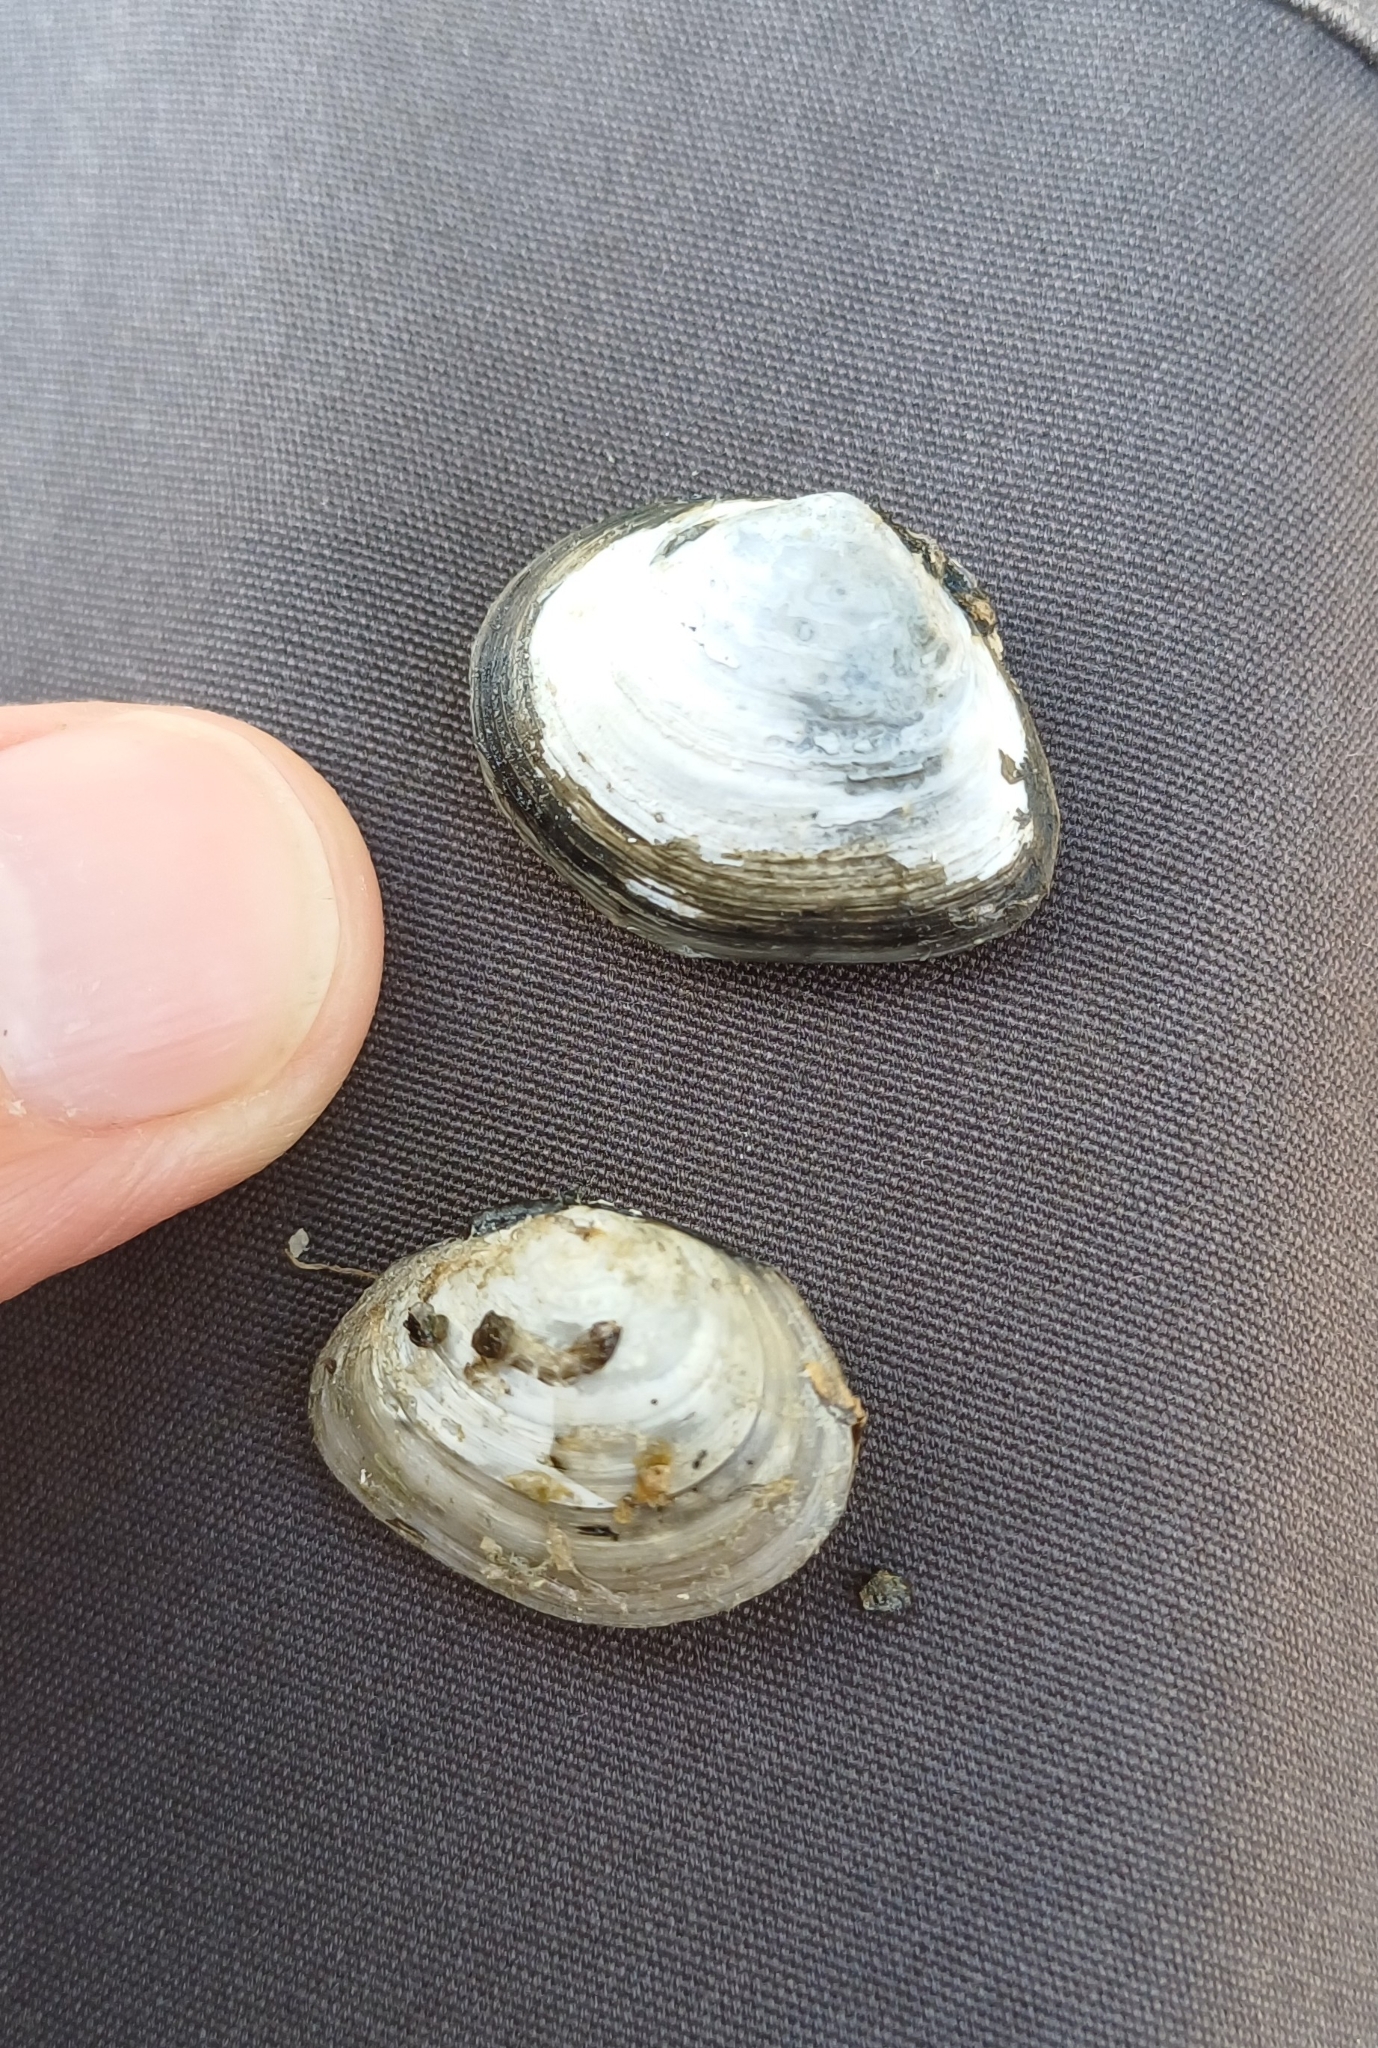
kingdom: Animalia
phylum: Mollusca
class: Bivalvia
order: Cardiida
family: Tellinidae
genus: Macoma
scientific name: Macoma balthica
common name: Baltic tellin
